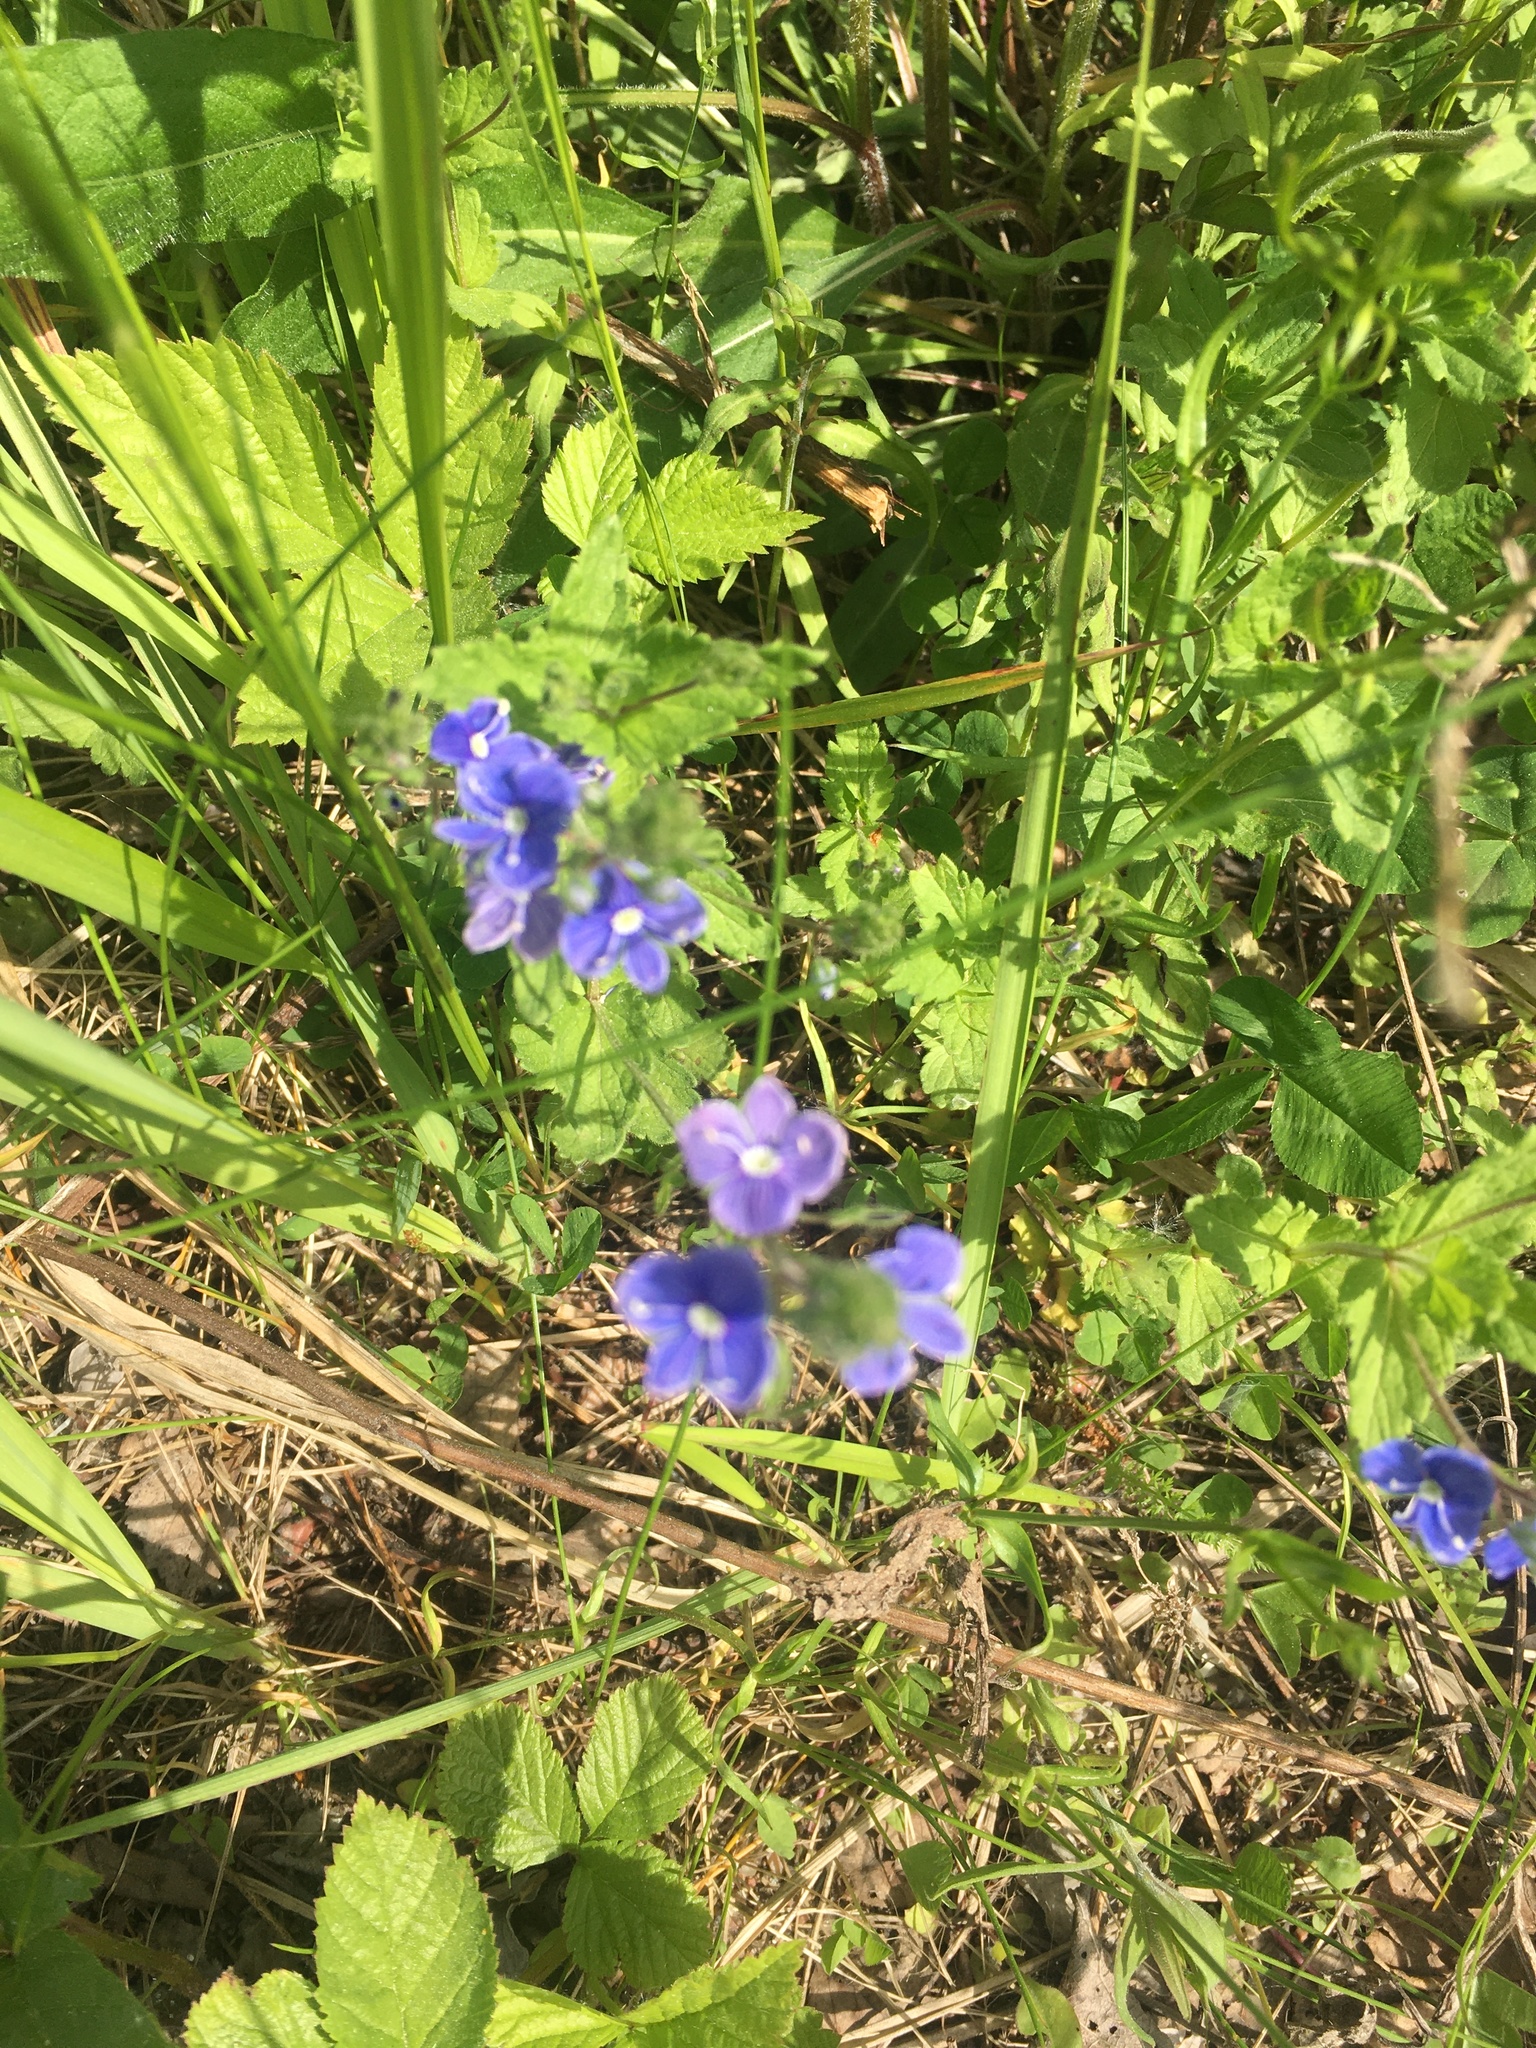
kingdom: Plantae
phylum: Tracheophyta
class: Magnoliopsida
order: Lamiales
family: Plantaginaceae
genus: Veronica
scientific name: Veronica chamaedrys
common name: Germander speedwell
